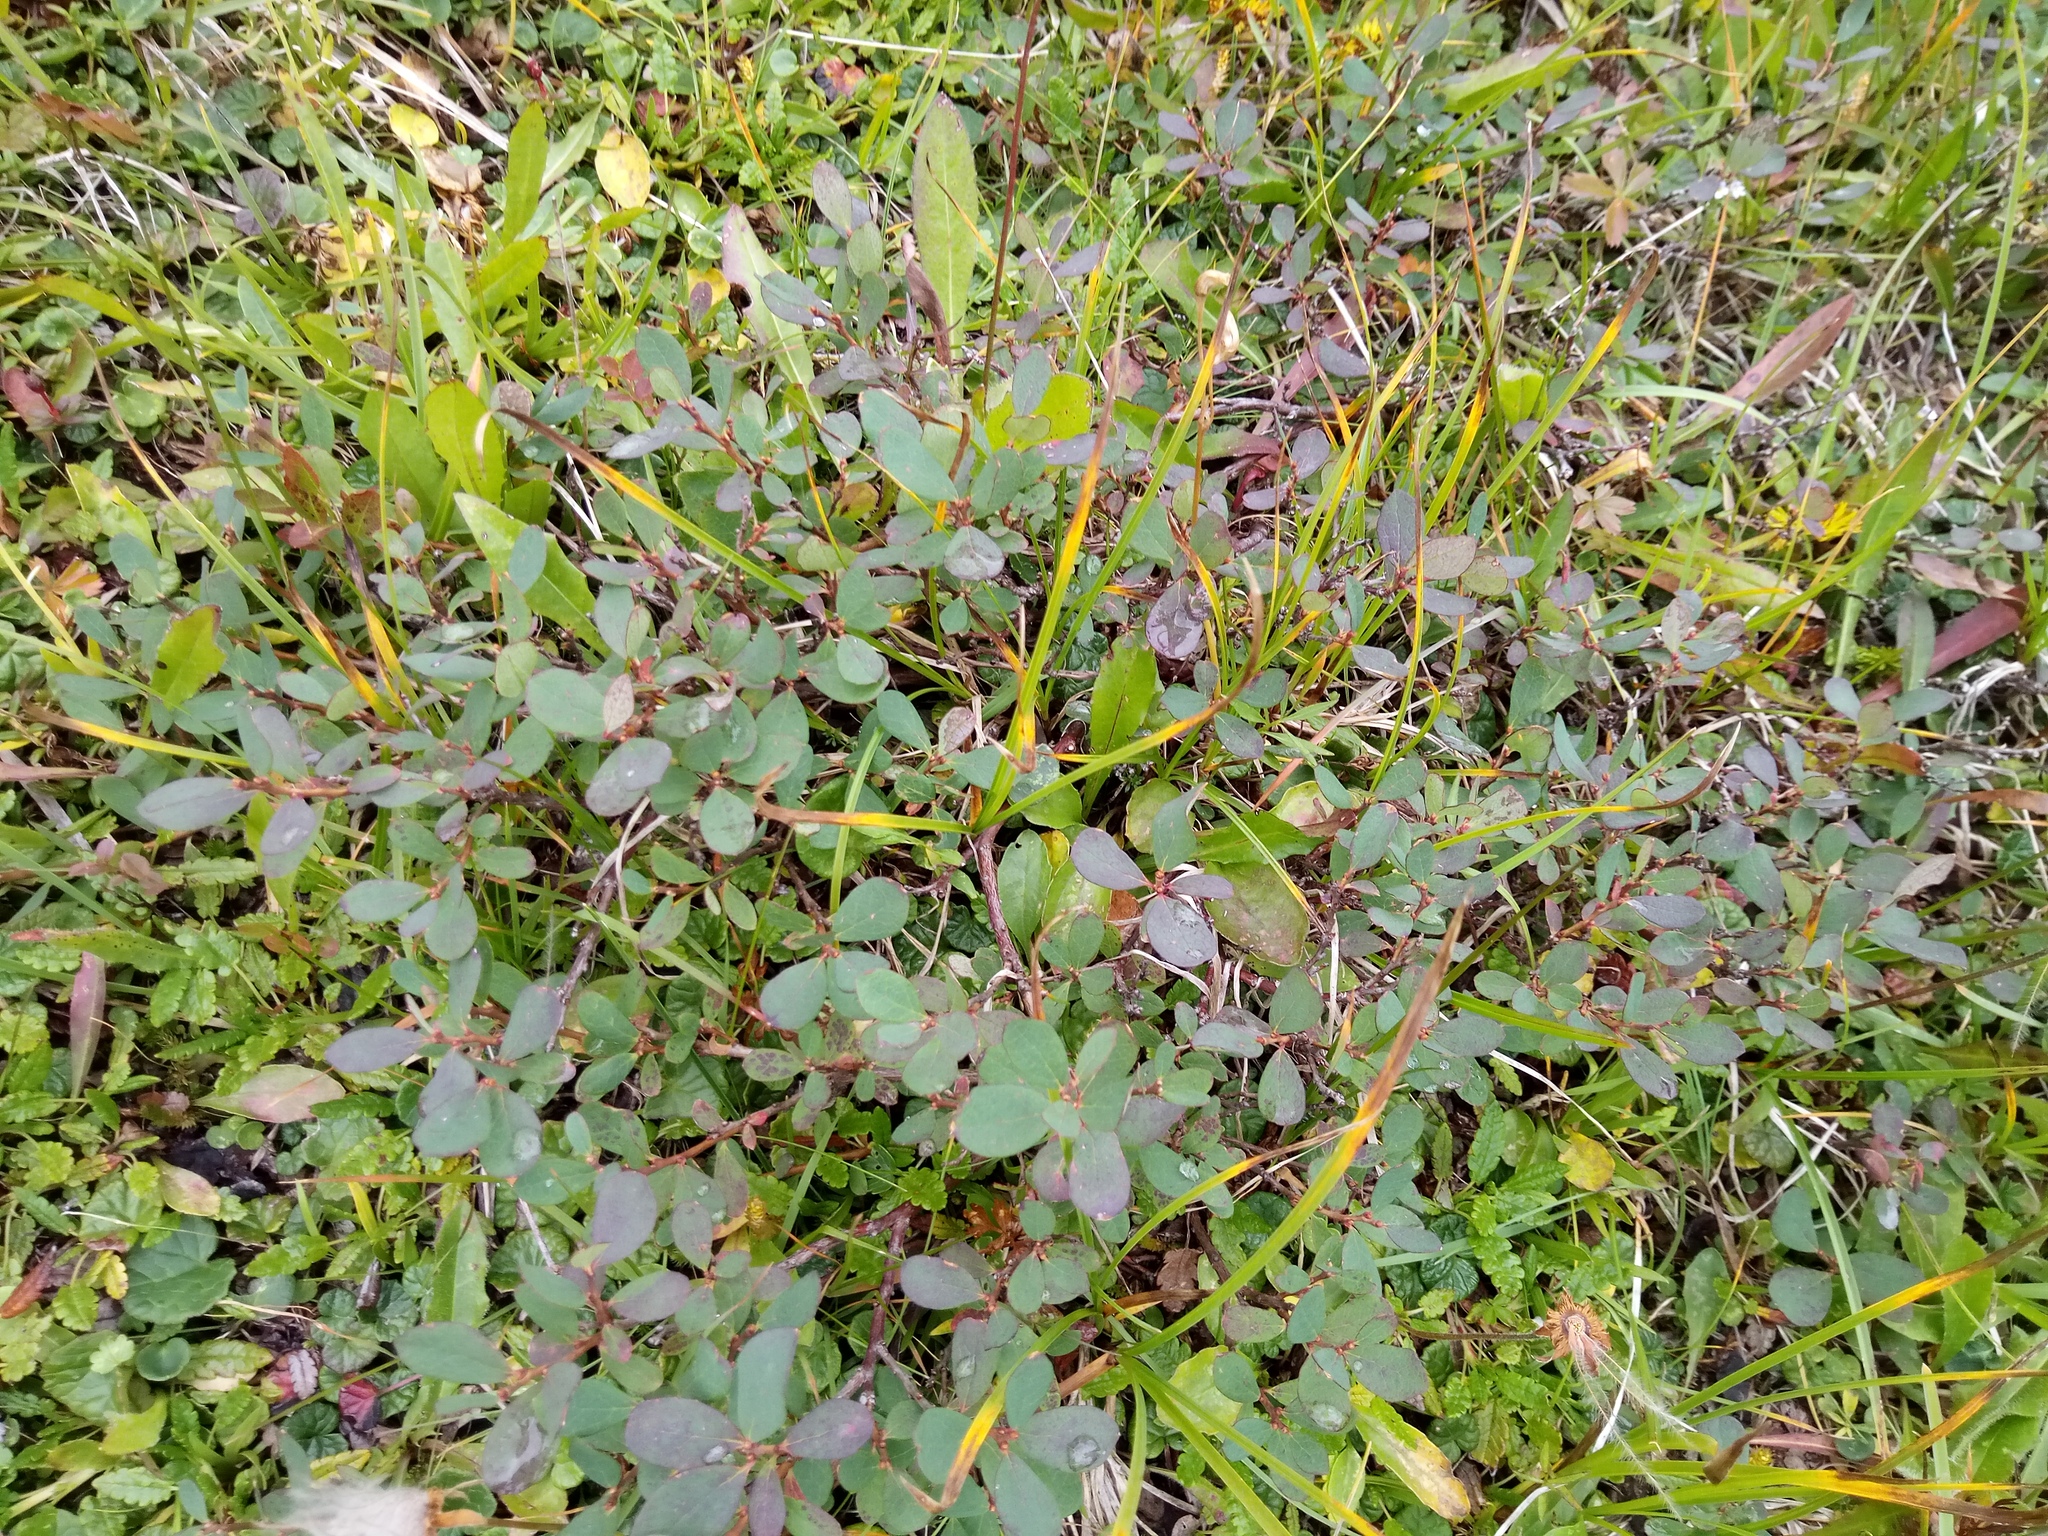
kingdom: Plantae
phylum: Tracheophyta
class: Magnoliopsida
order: Ericales
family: Ericaceae
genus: Vaccinium
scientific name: Vaccinium uliginosum
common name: Bog bilberry
